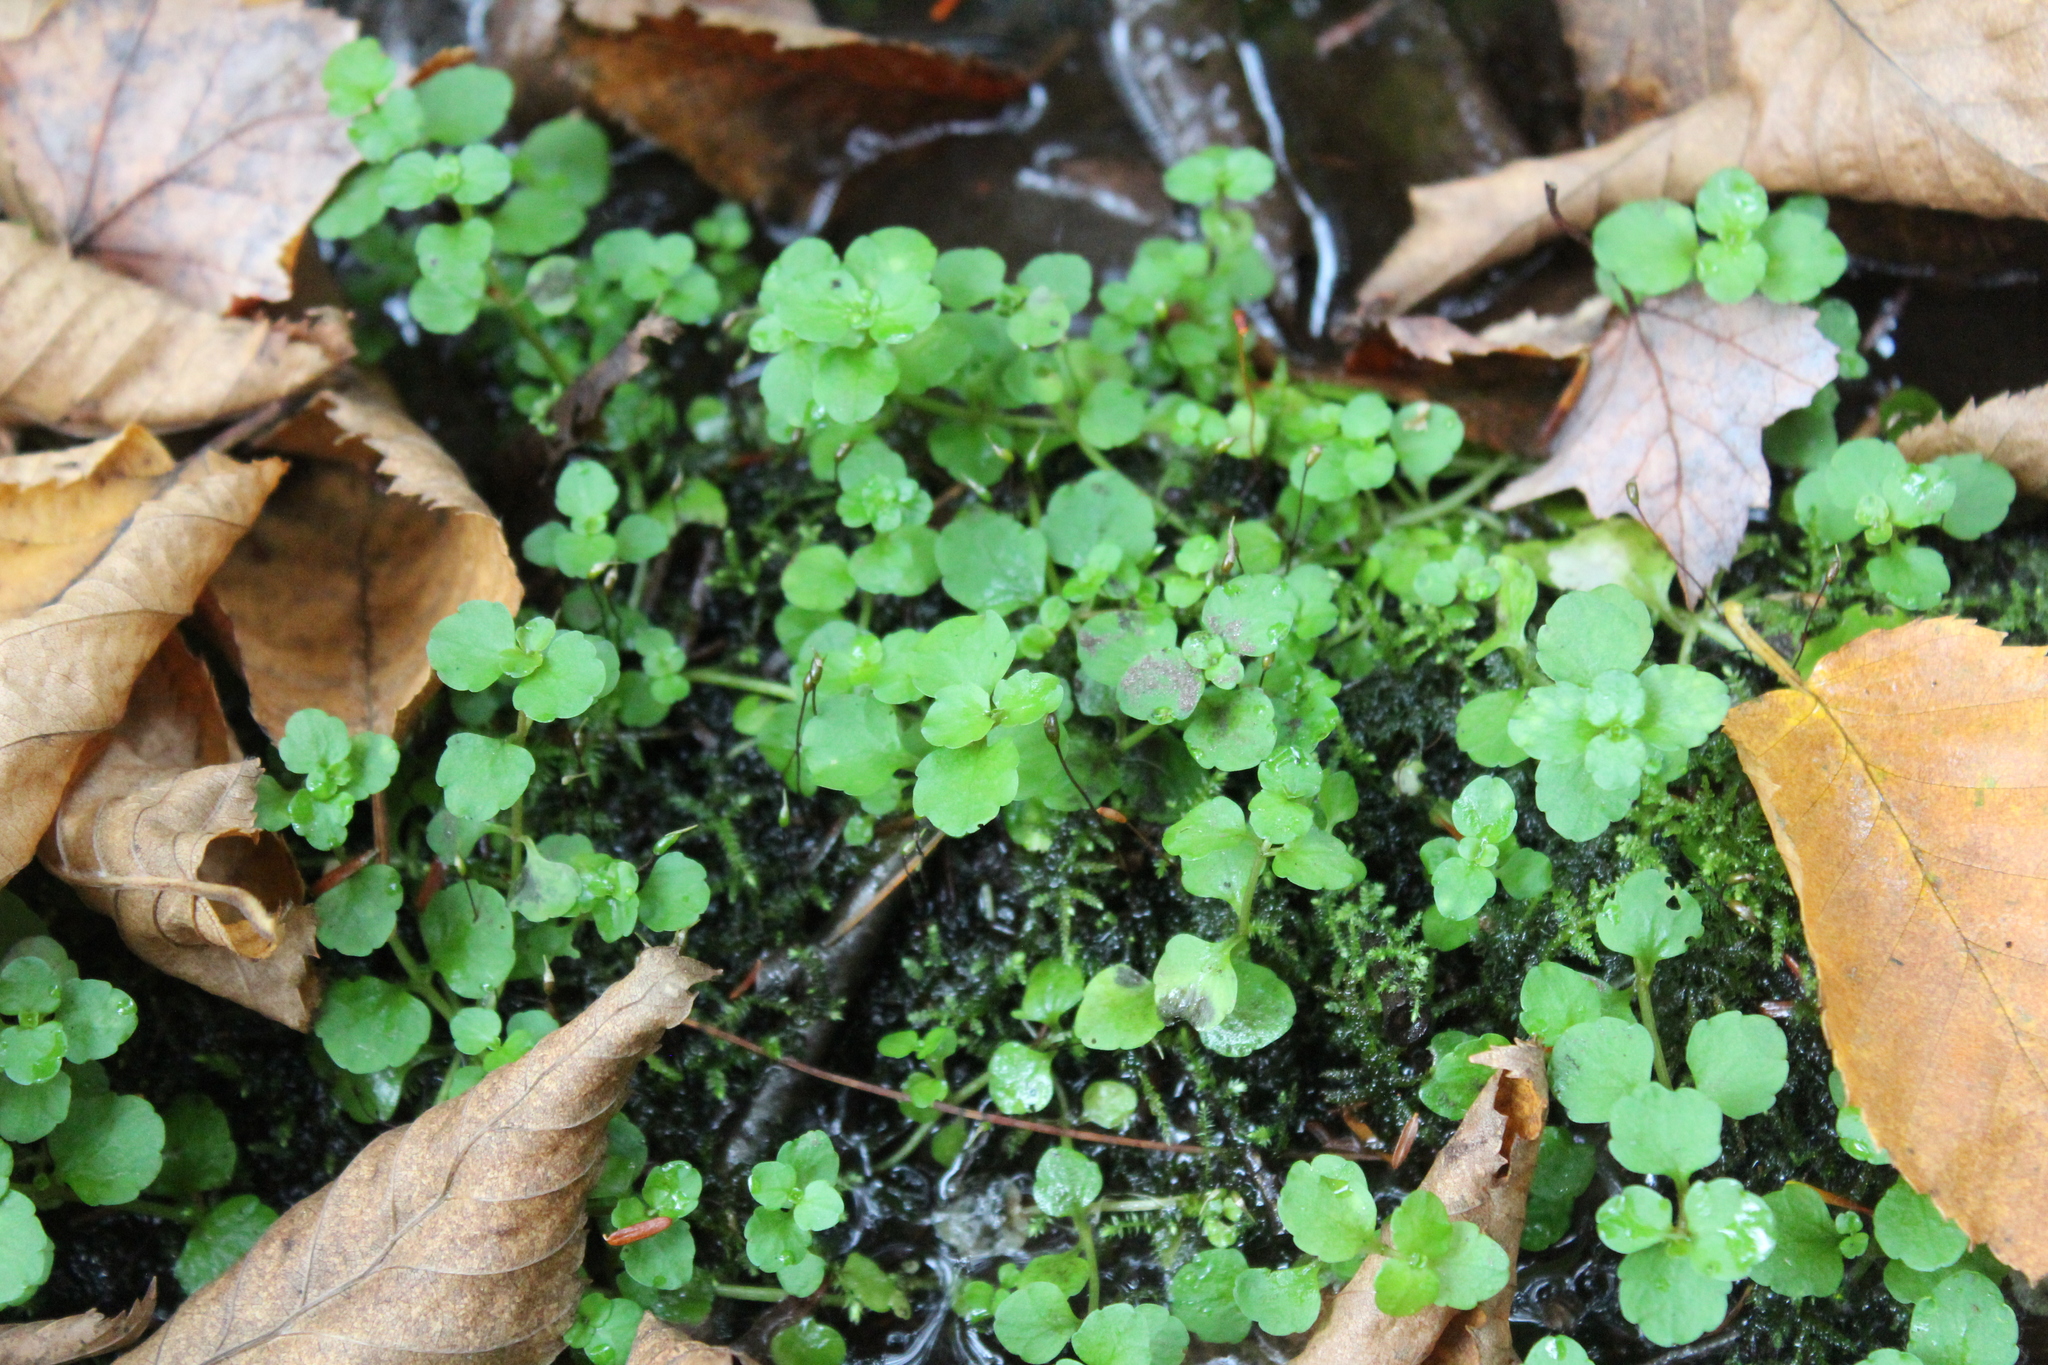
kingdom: Plantae
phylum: Tracheophyta
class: Magnoliopsida
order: Saxifragales
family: Saxifragaceae
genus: Chrysosplenium
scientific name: Chrysosplenium americanum
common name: American golden-saxifrage
